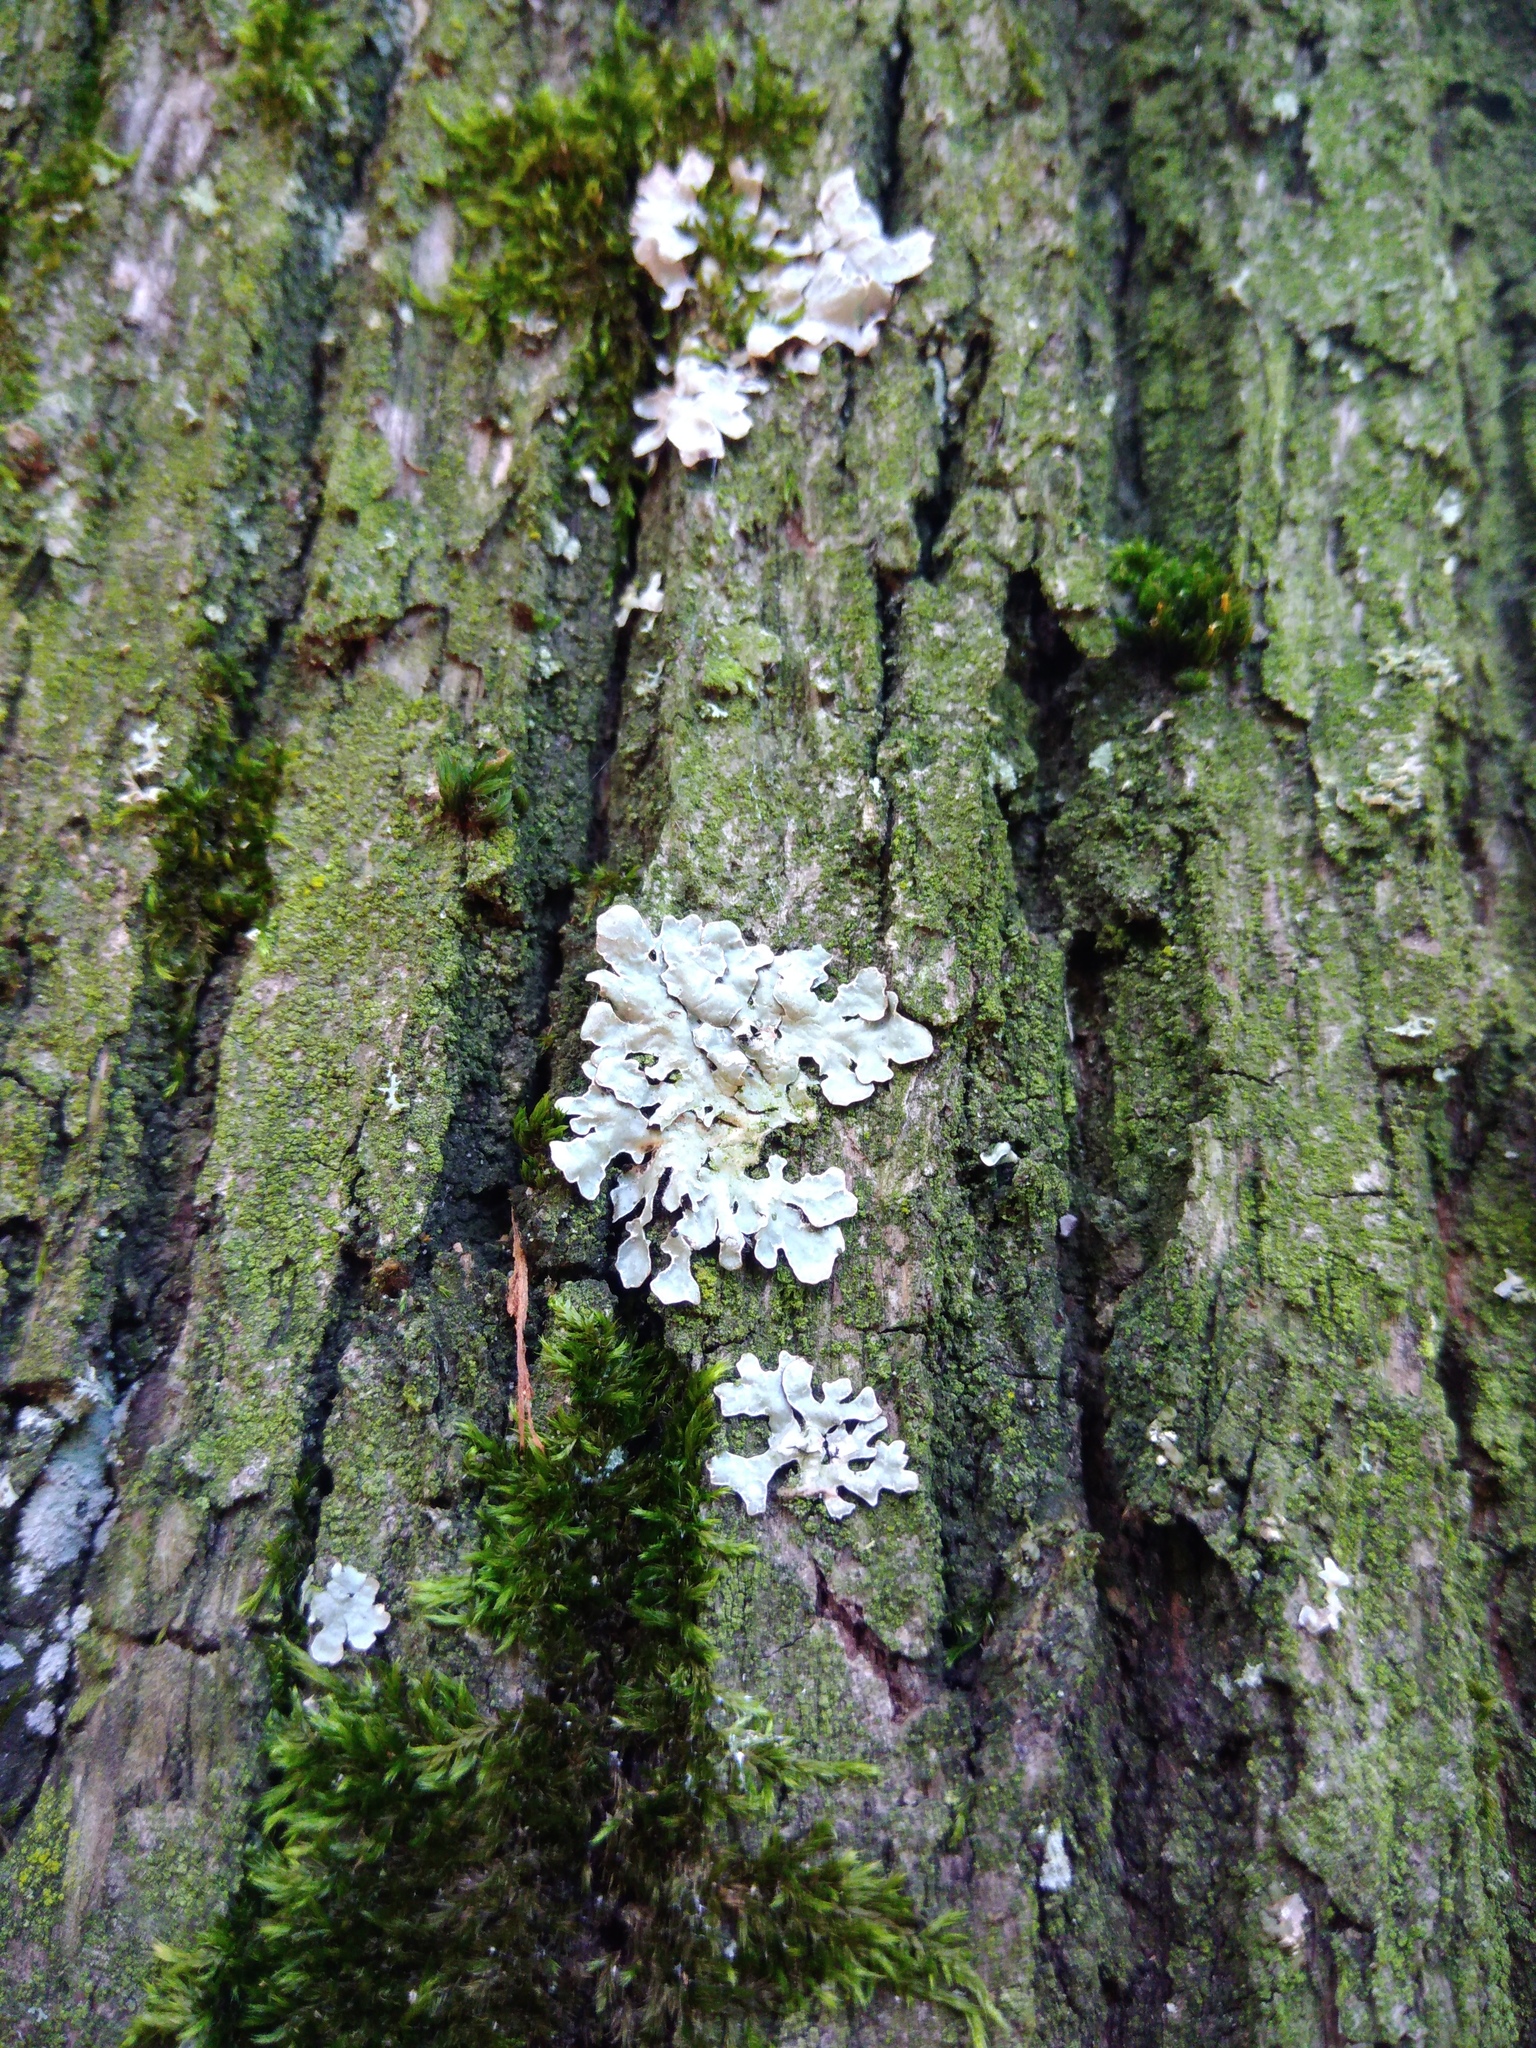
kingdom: Fungi
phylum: Ascomycota
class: Lecanoromycetes
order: Lecanorales
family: Parmeliaceae
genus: Parmelia
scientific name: Parmelia sulcata
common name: Netted shield lichen
